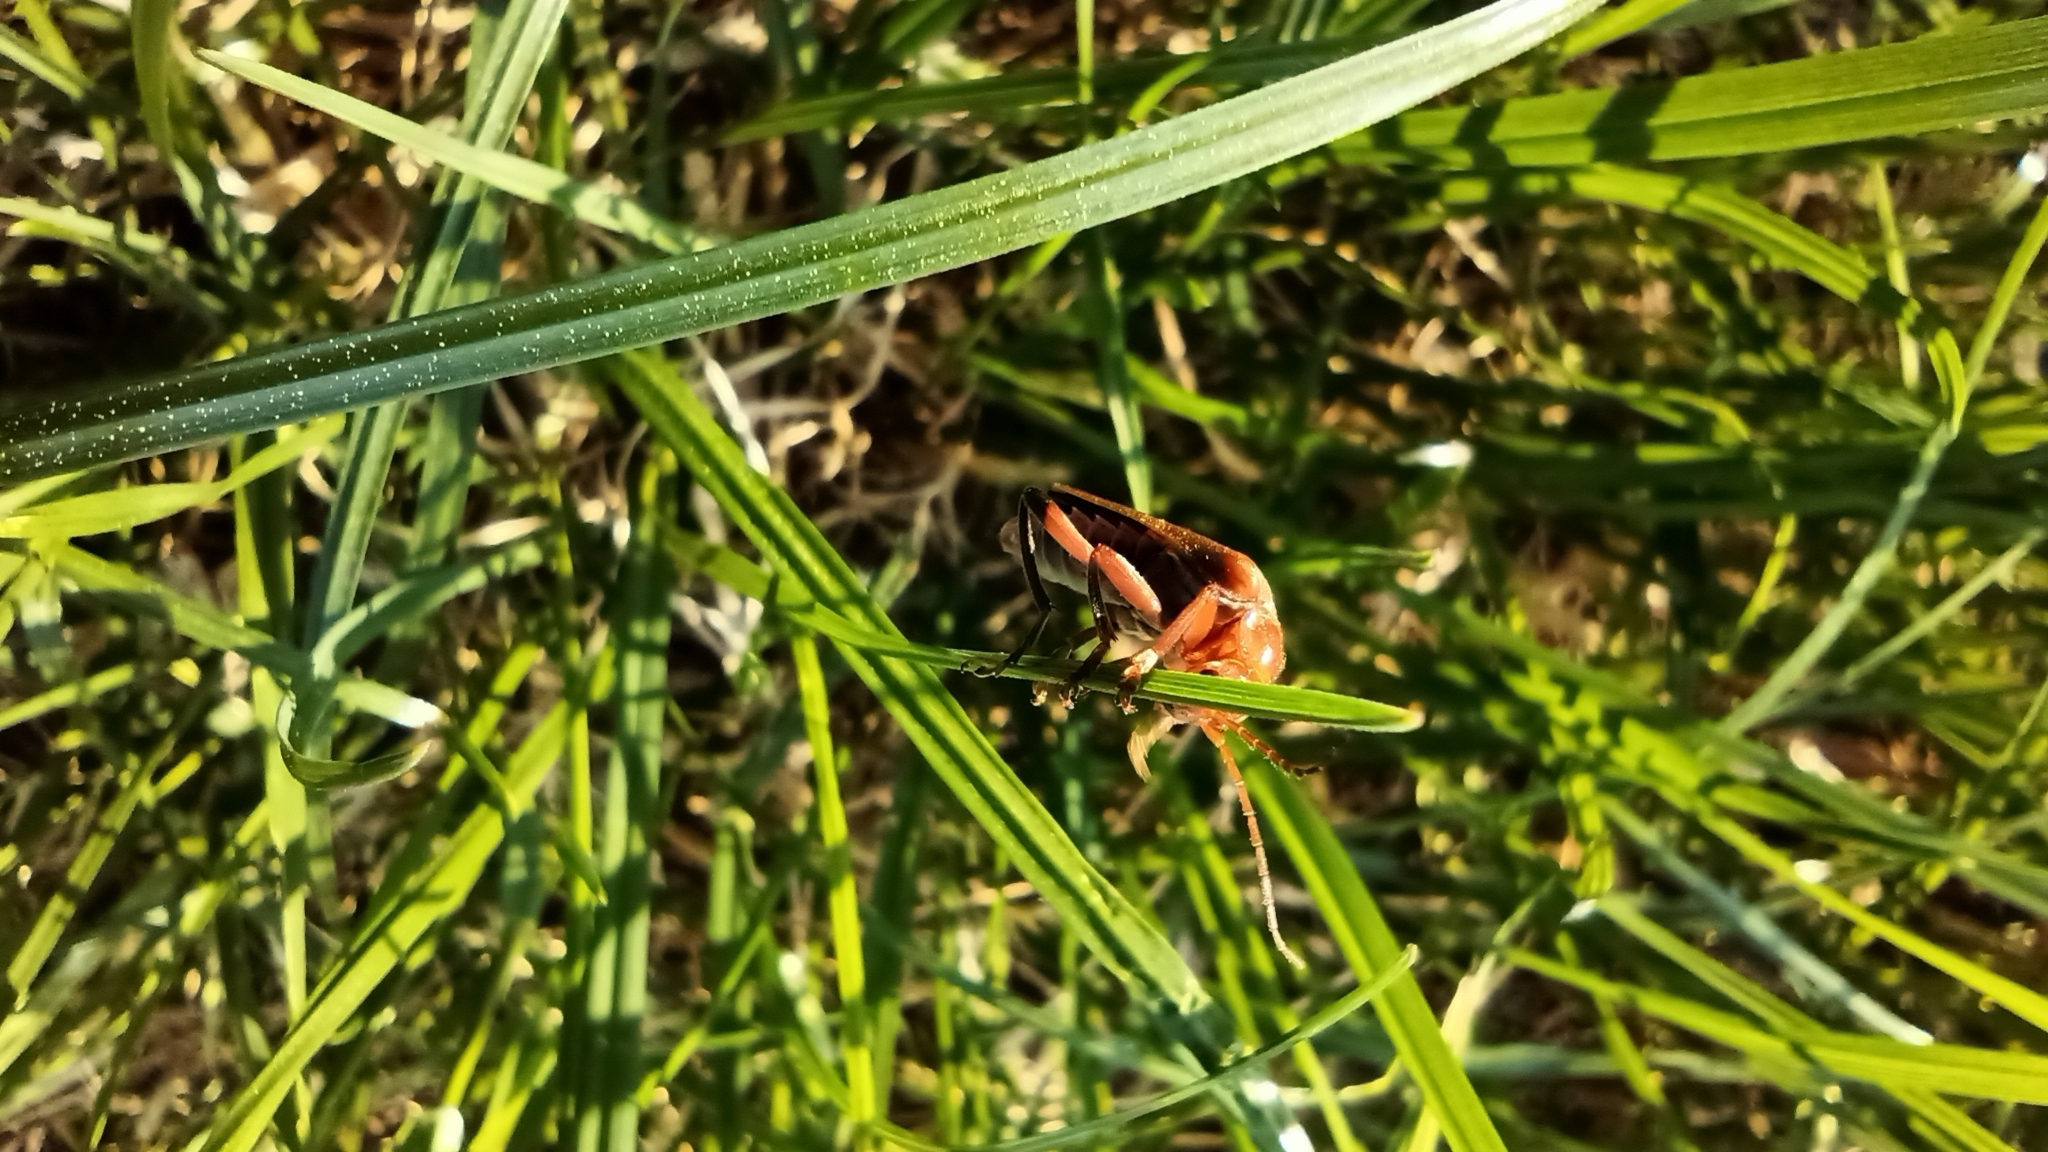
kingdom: Animalia
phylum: Arthropoda
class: Insecta
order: Coleoptera
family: Cantharidae
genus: Cantharis
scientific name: Cantharis livida
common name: Livid soldier beetle
